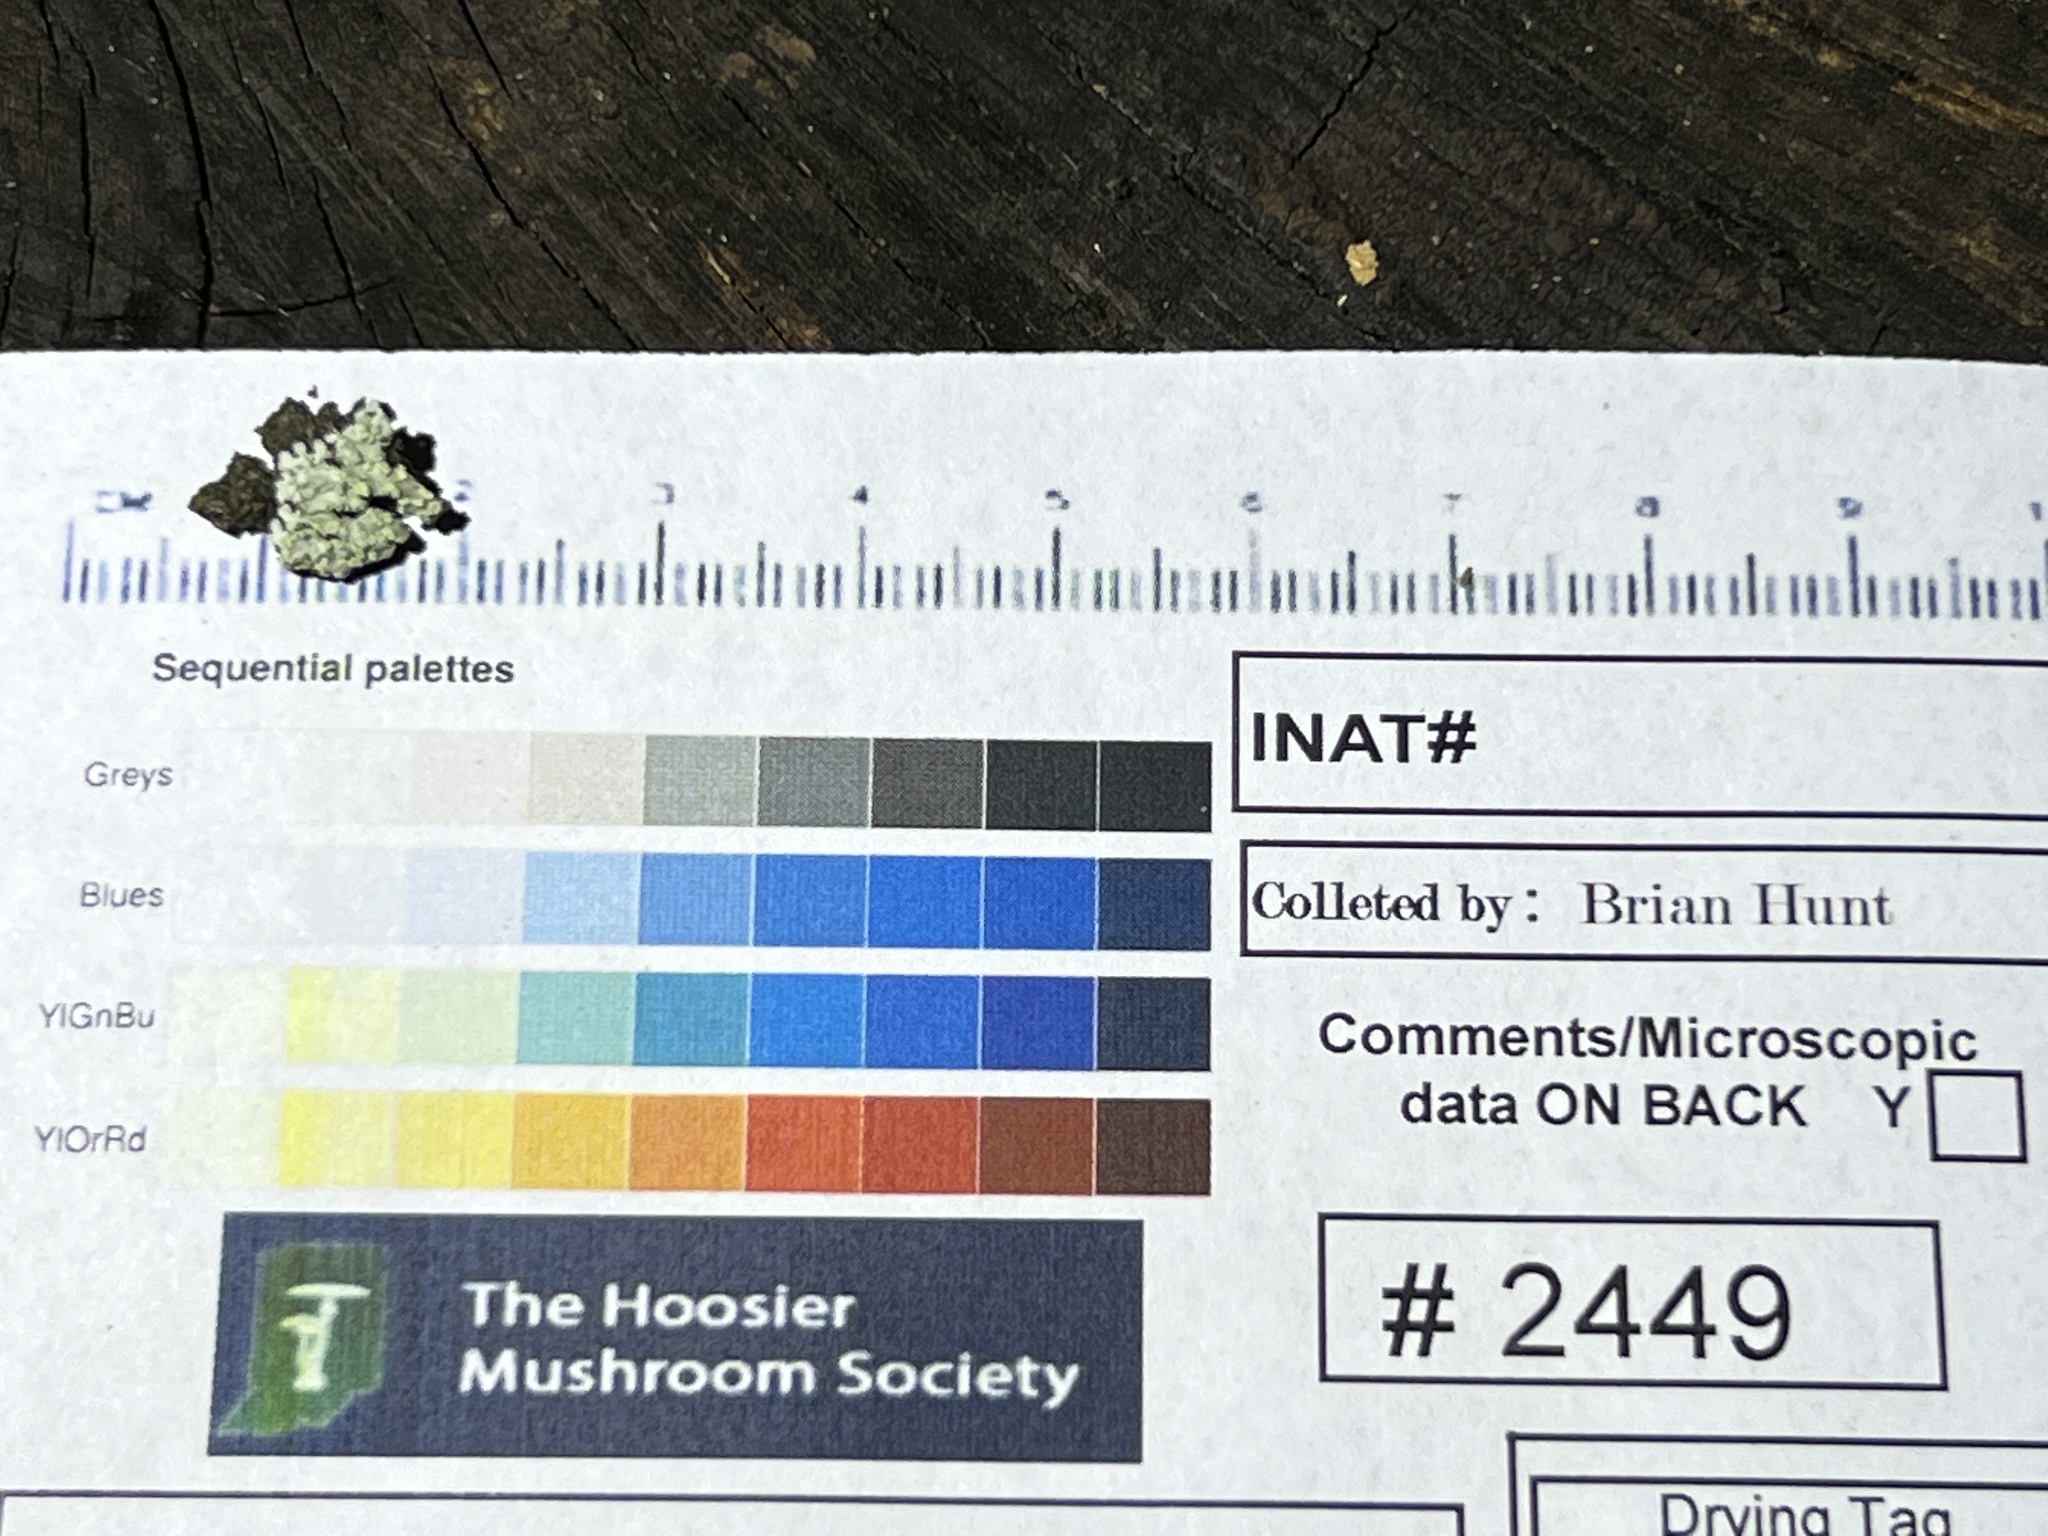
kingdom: Fungi
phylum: Ascomycota
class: Lecanoromycetes
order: Caliciales
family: Caliciaceae
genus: Pyxine
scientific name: Pyxine subcinerea
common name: Mustard lichen
